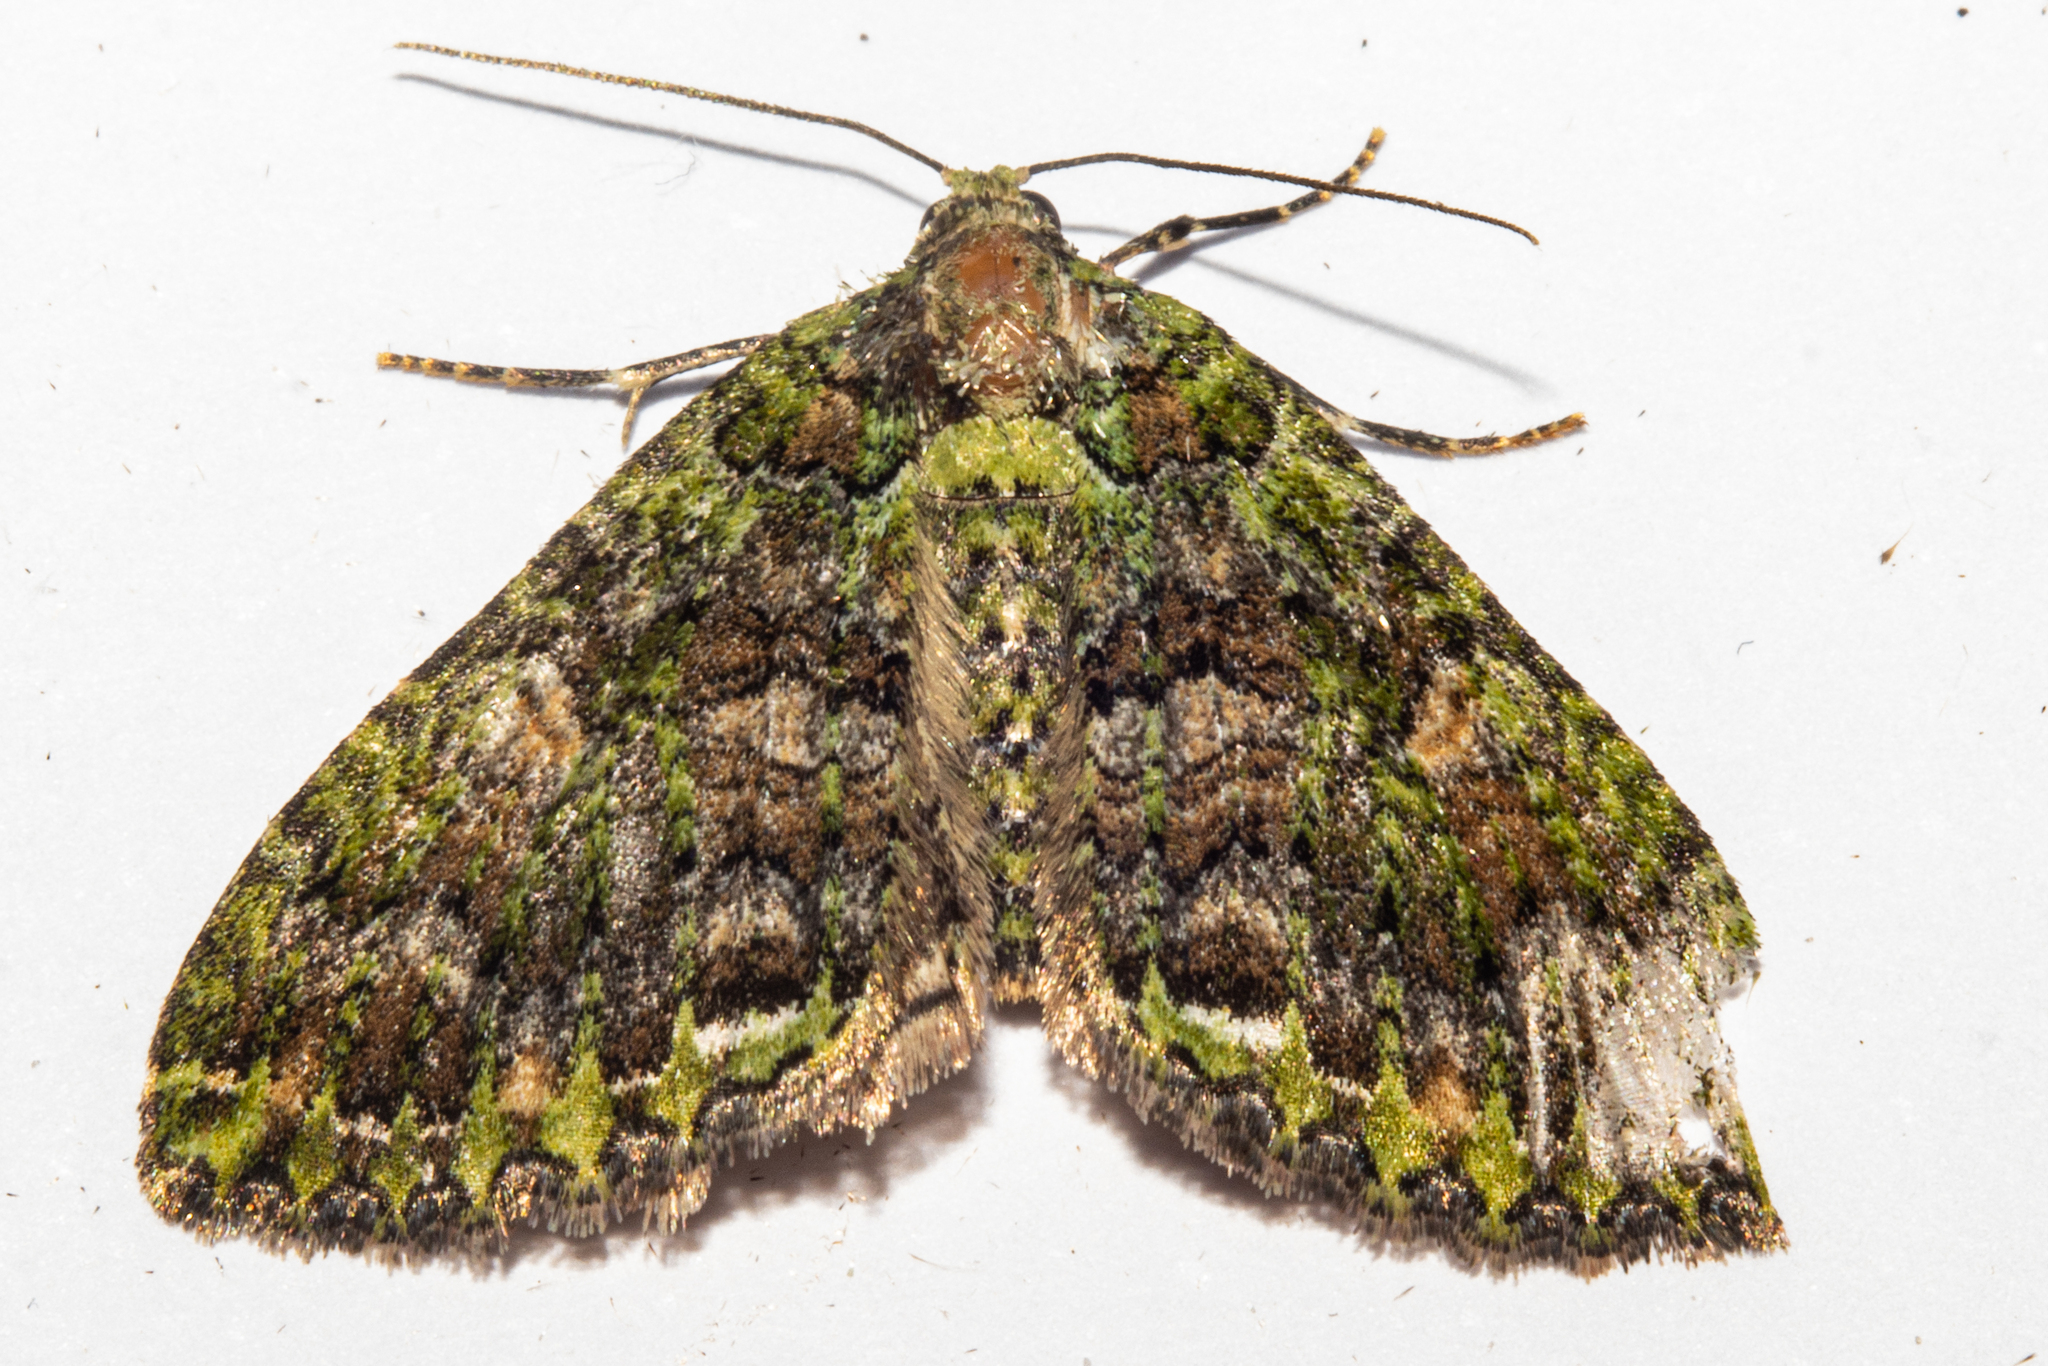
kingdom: Animalia
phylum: Arthropoda
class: Insecta
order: Lepidoptera
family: Geometridae
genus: Austrocidaria
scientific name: Austrocidaria similata
